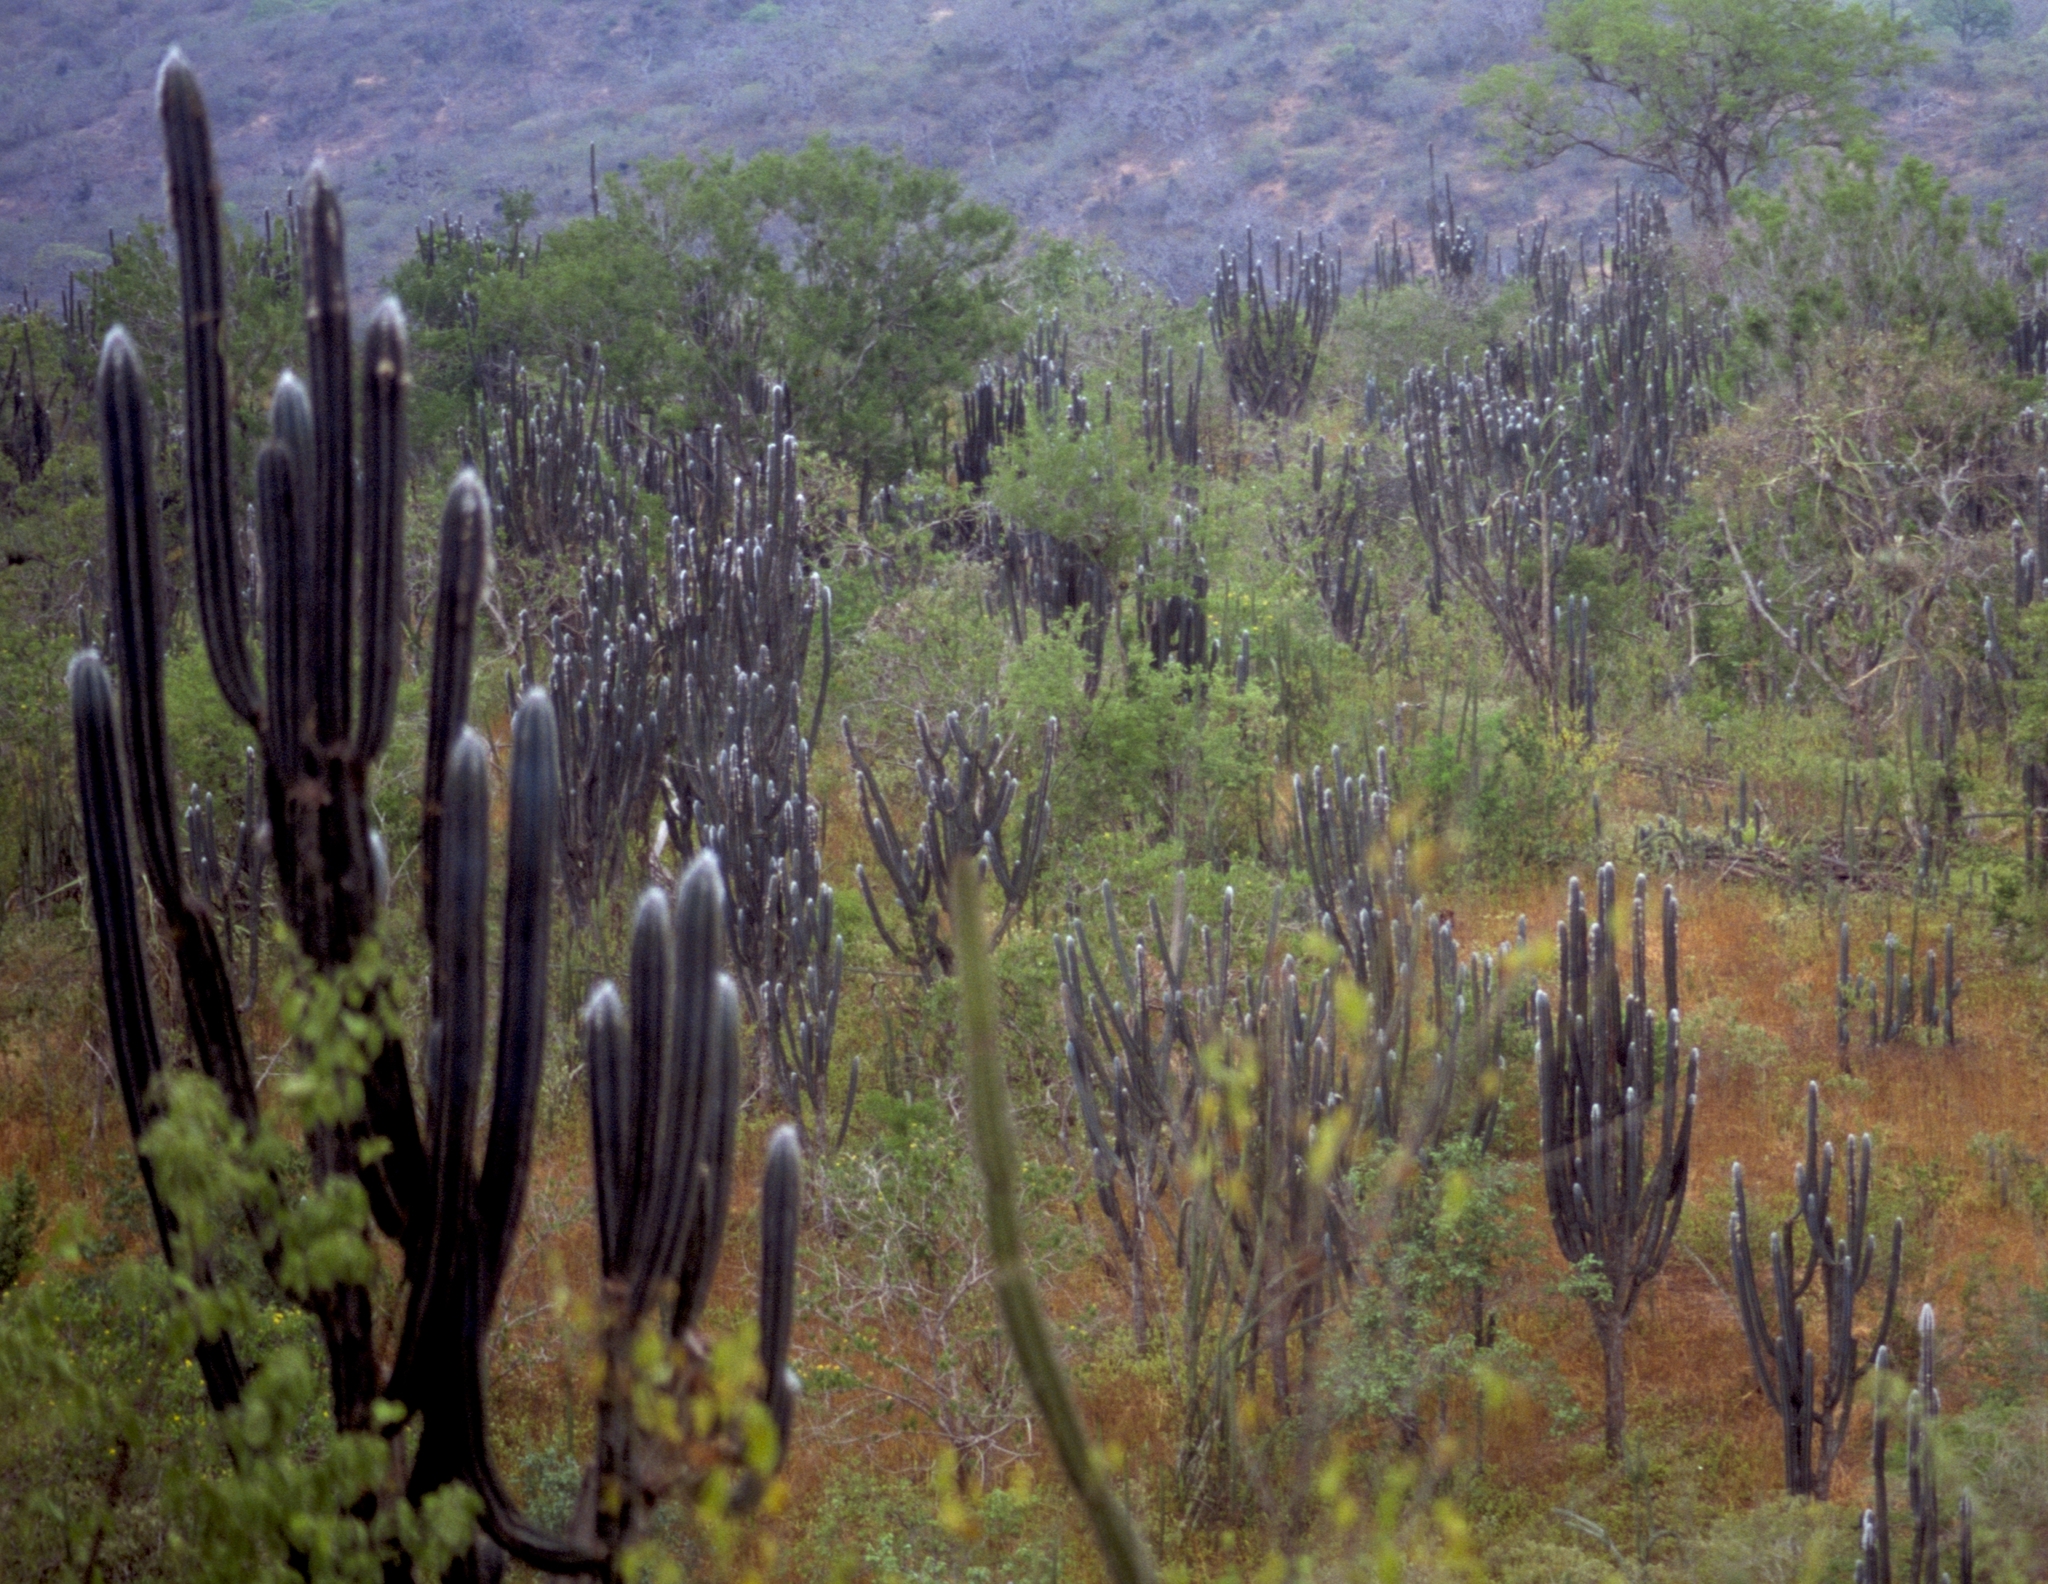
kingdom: Plantae
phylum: Tracheophyta
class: Magnoliopsida
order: Caryophyllales
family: Cactaceae
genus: Pilosocereus
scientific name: Pilosocereus lanuginosus
